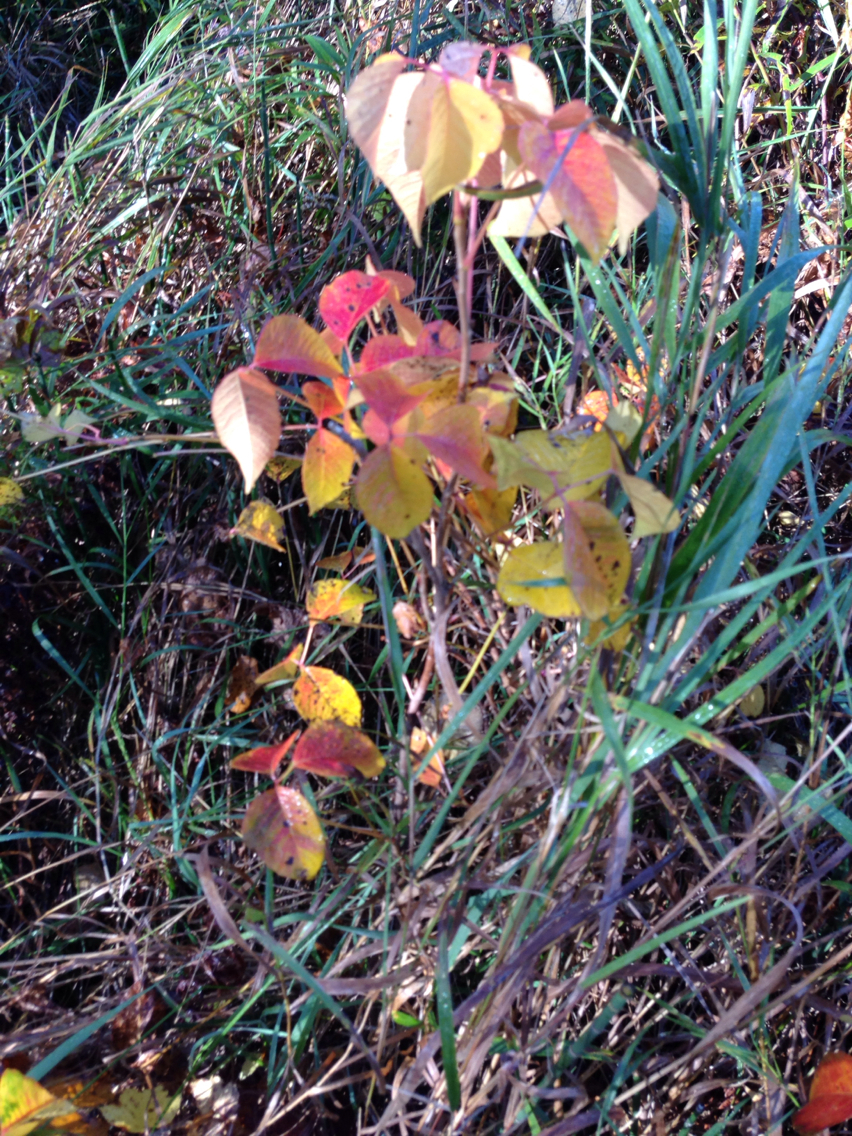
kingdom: Plantae
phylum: Tracheophyta
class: Magnoliopsida
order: Sapindales
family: Anacardiaceae
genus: Toxicodendron
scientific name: Toxicodendron radicans
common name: Poison ivy
